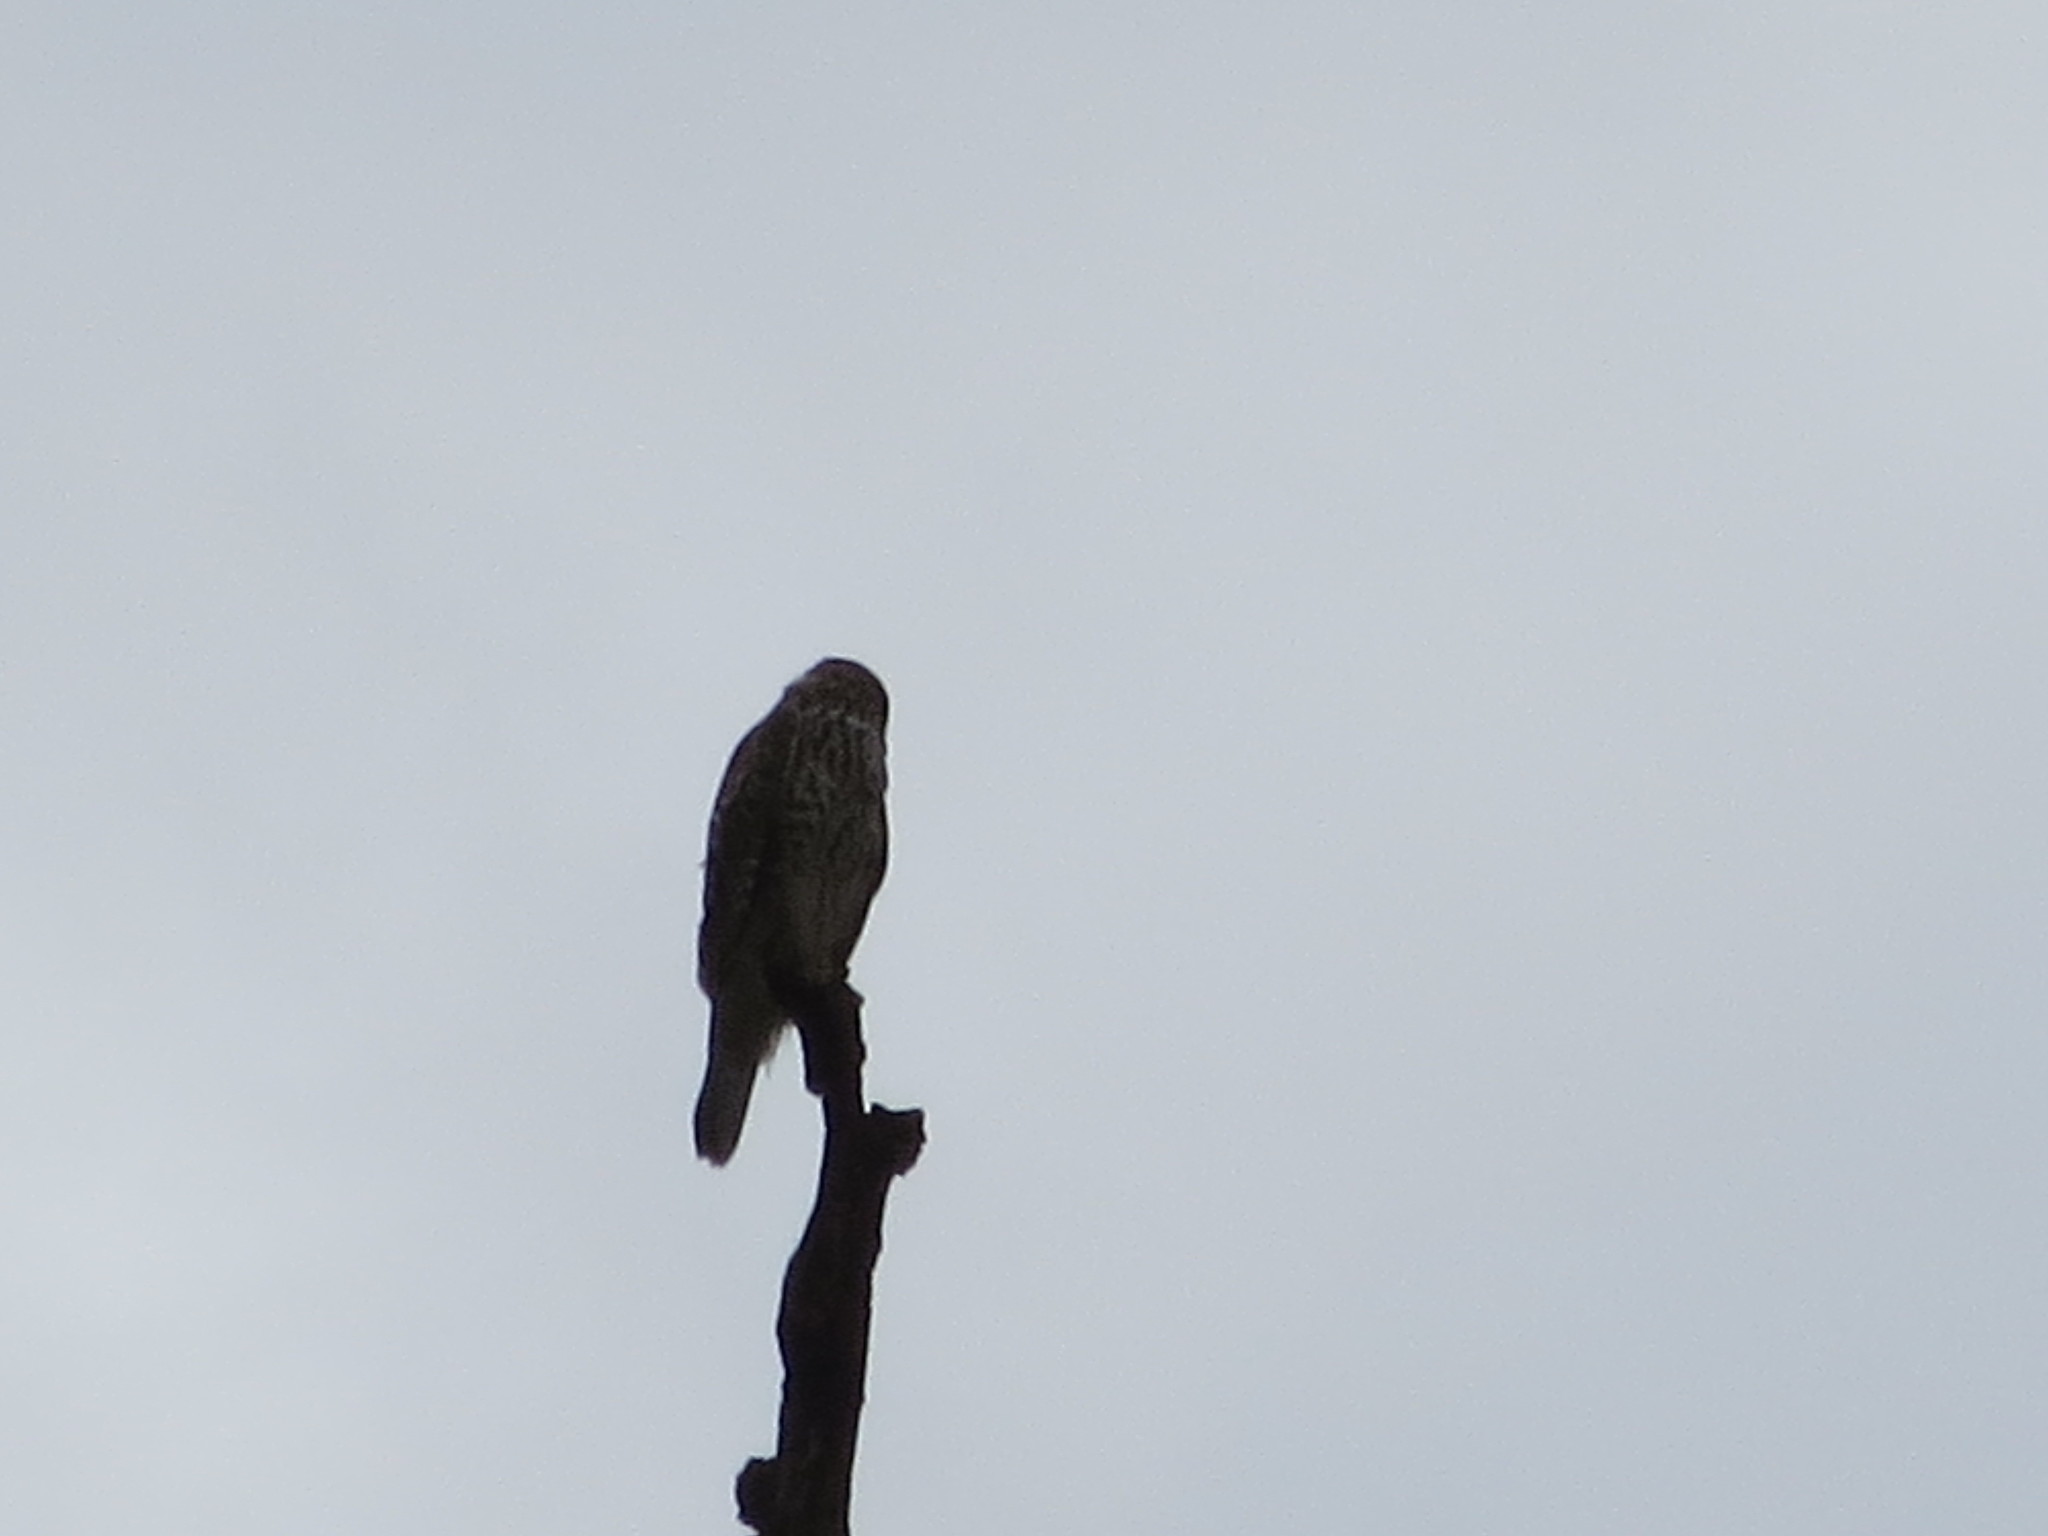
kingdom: Animalia
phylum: Chordata
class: Aves
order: Accipitriformes
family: Accipitridae
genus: Buteo
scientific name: Buteo lineatus
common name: Red-shouldered hawk
